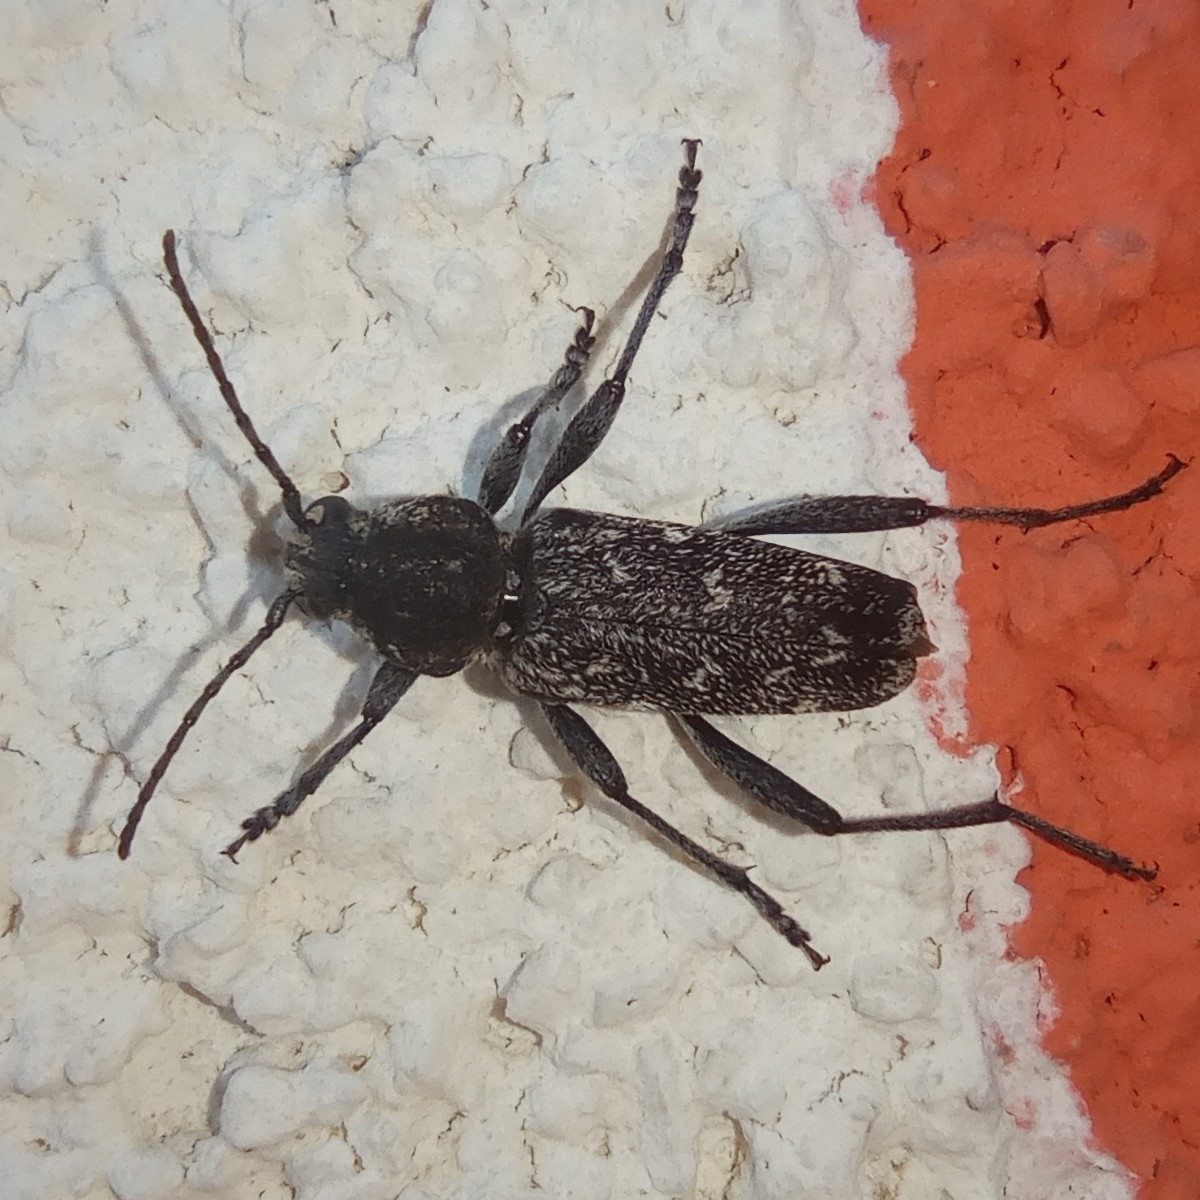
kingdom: Animalia
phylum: Arthropoda
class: Insecta
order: Coleoptera
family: Cerambycidae
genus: Xylotrechus
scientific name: Xylotrechus rusticus
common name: Grey tiger long-horned beetle
